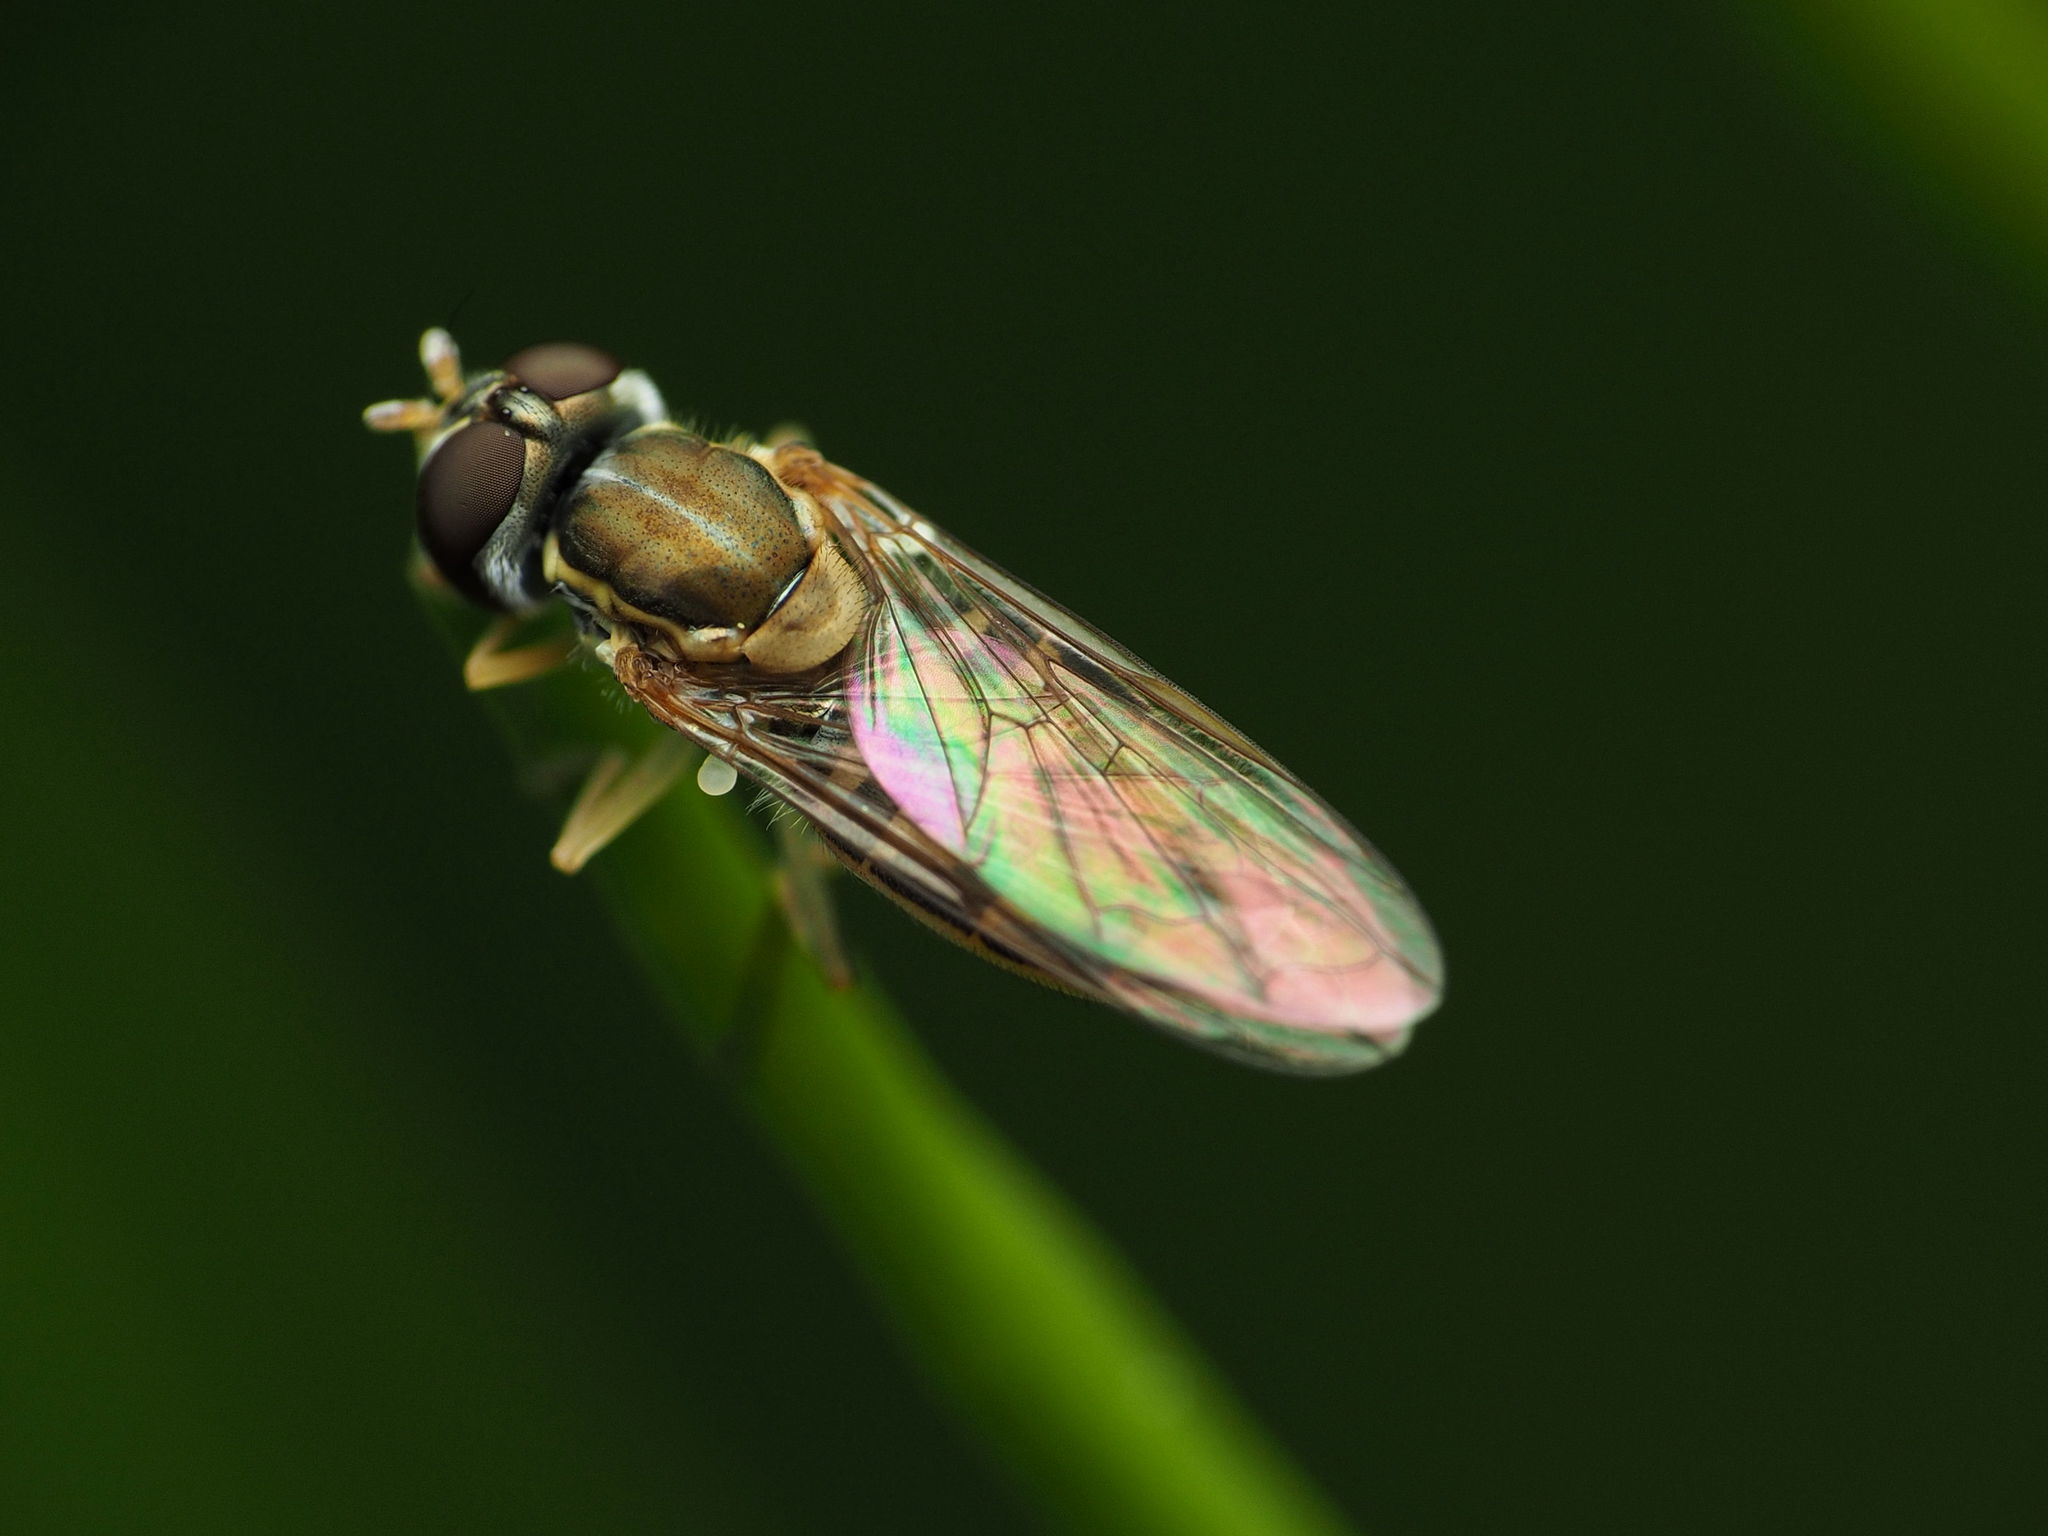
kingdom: Animalia
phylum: Arthropoda
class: Insecta
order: Diptera
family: Syrphidae
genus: Toxomerus
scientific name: Toxomerus marginatus
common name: Syrphid fly
